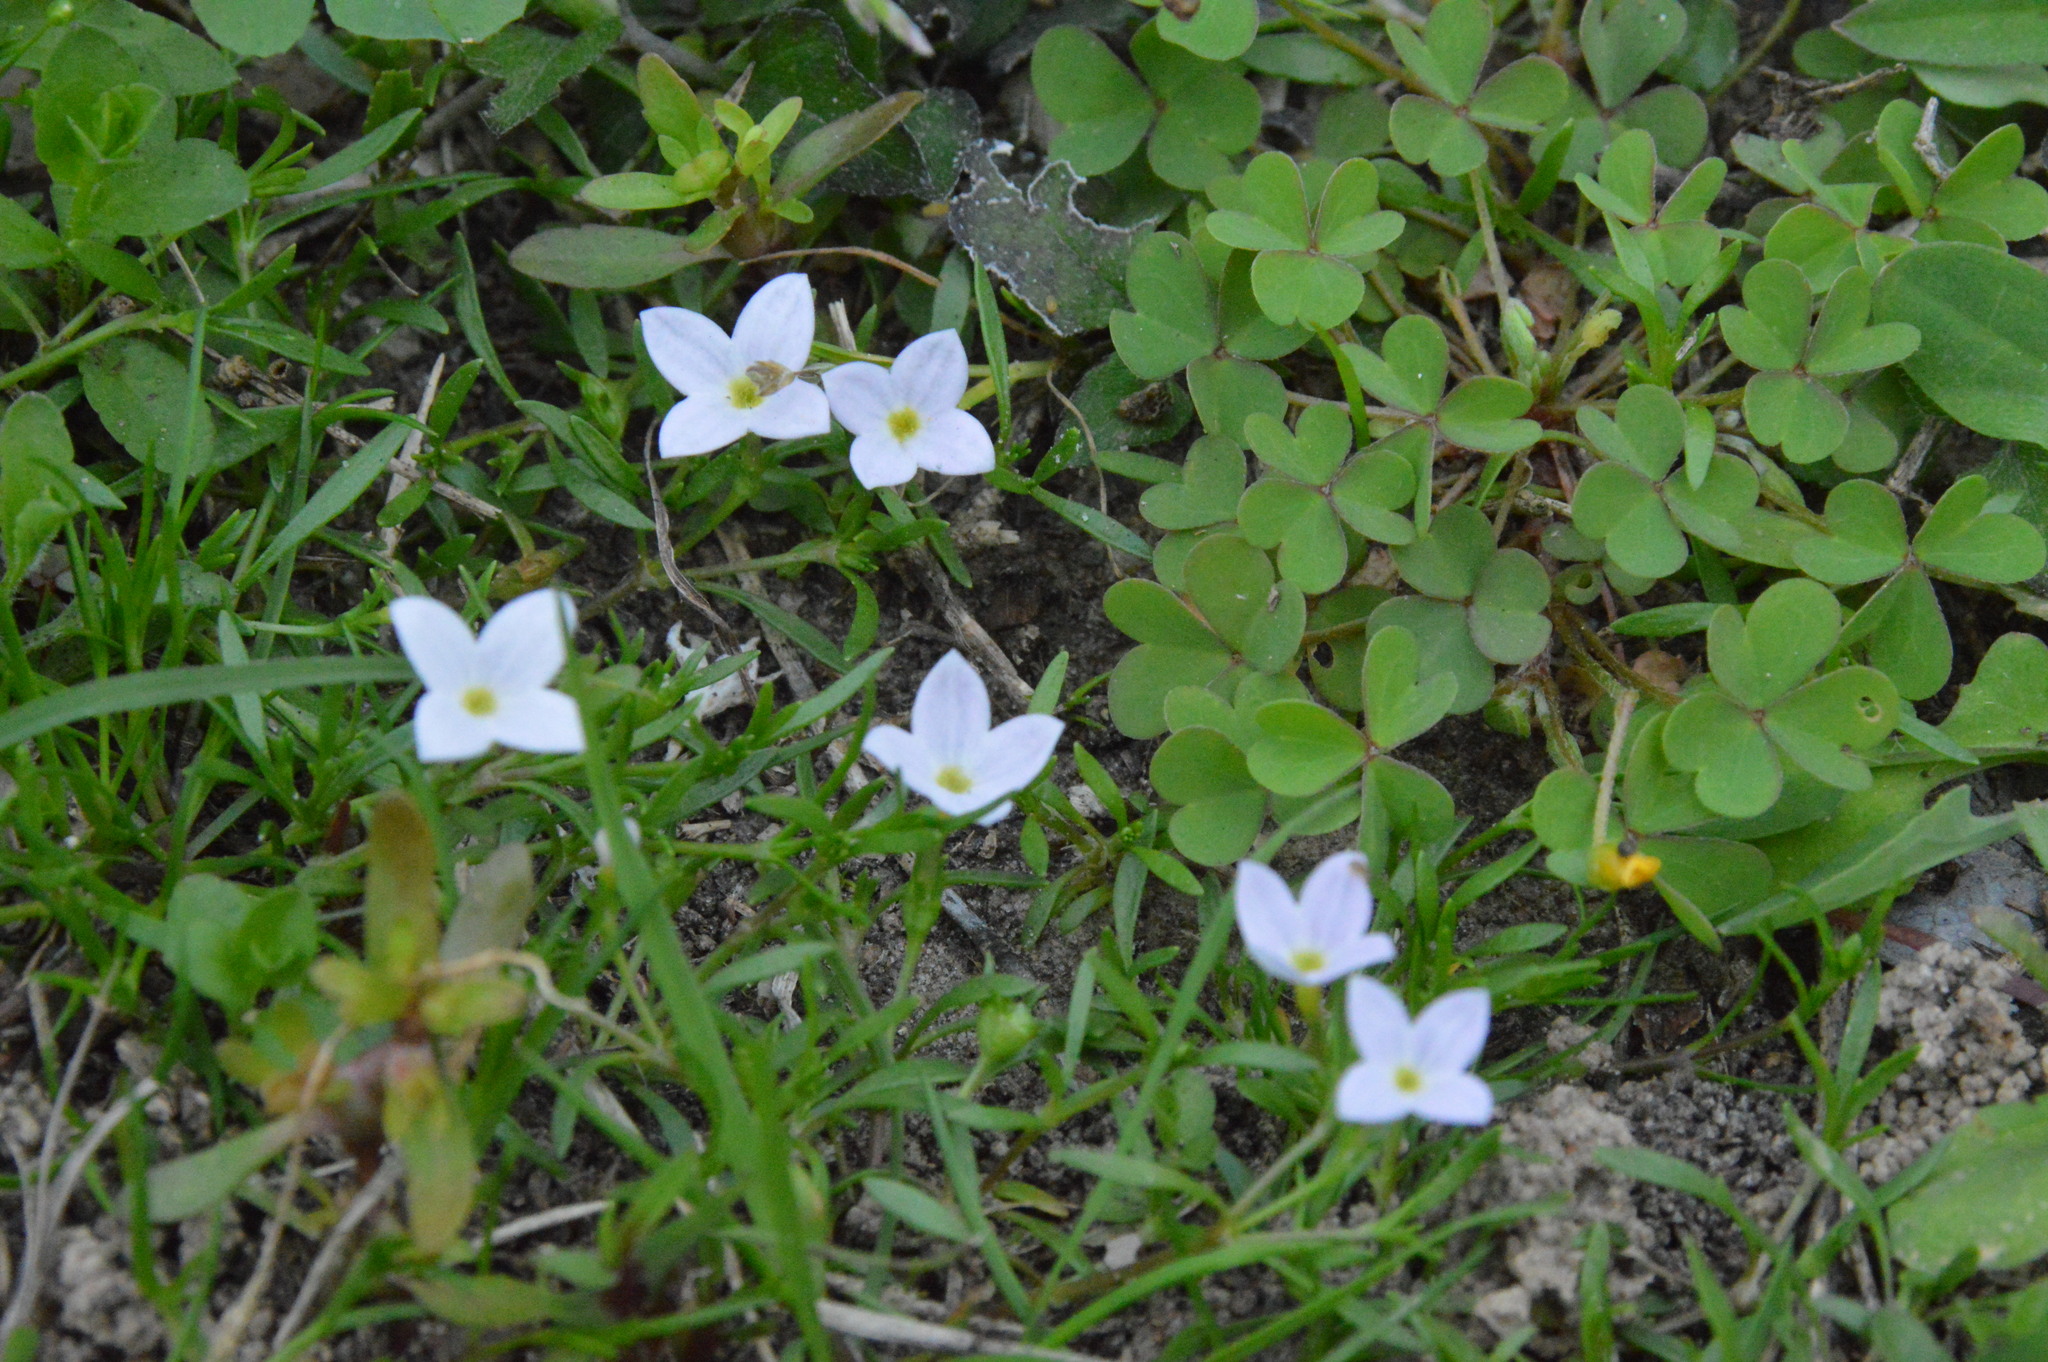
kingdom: Plantae
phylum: Tracheophyta
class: Magnoliopsida
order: Gentianales
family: Rubiaceae
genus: Houstonia
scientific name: Houstonia rosea
